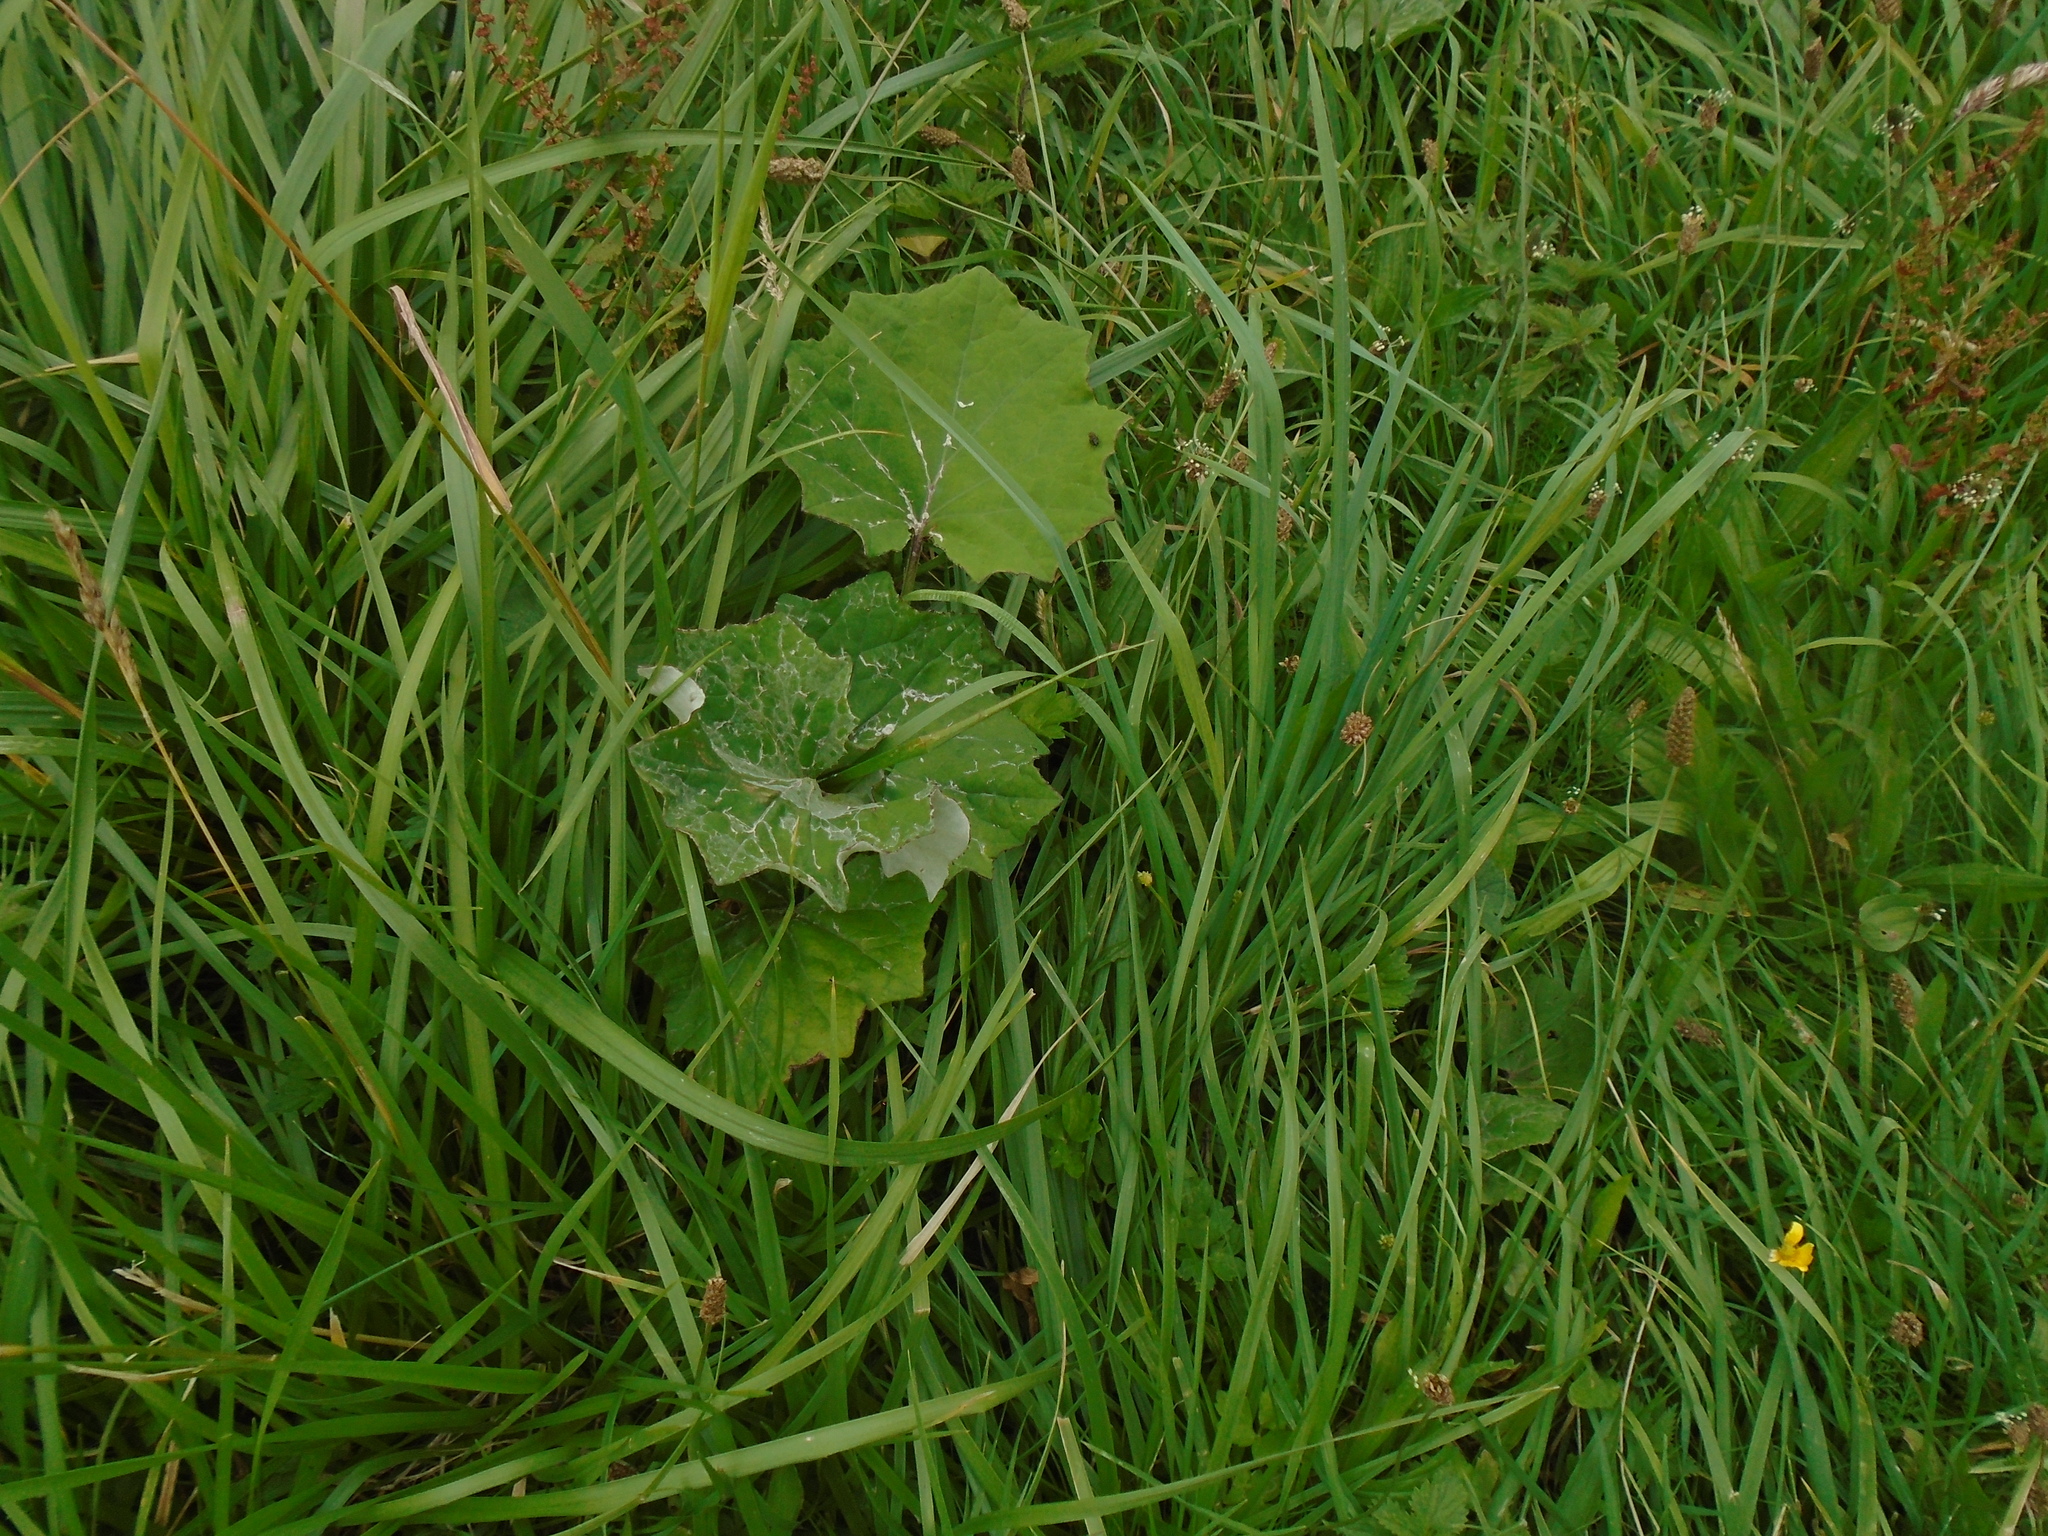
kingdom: Plantae
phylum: Tracheophyta
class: Magnoliopsida
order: Asterales
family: Asteraceae
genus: Tussilago
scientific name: Tussilago farfara
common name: Coltsfoot
